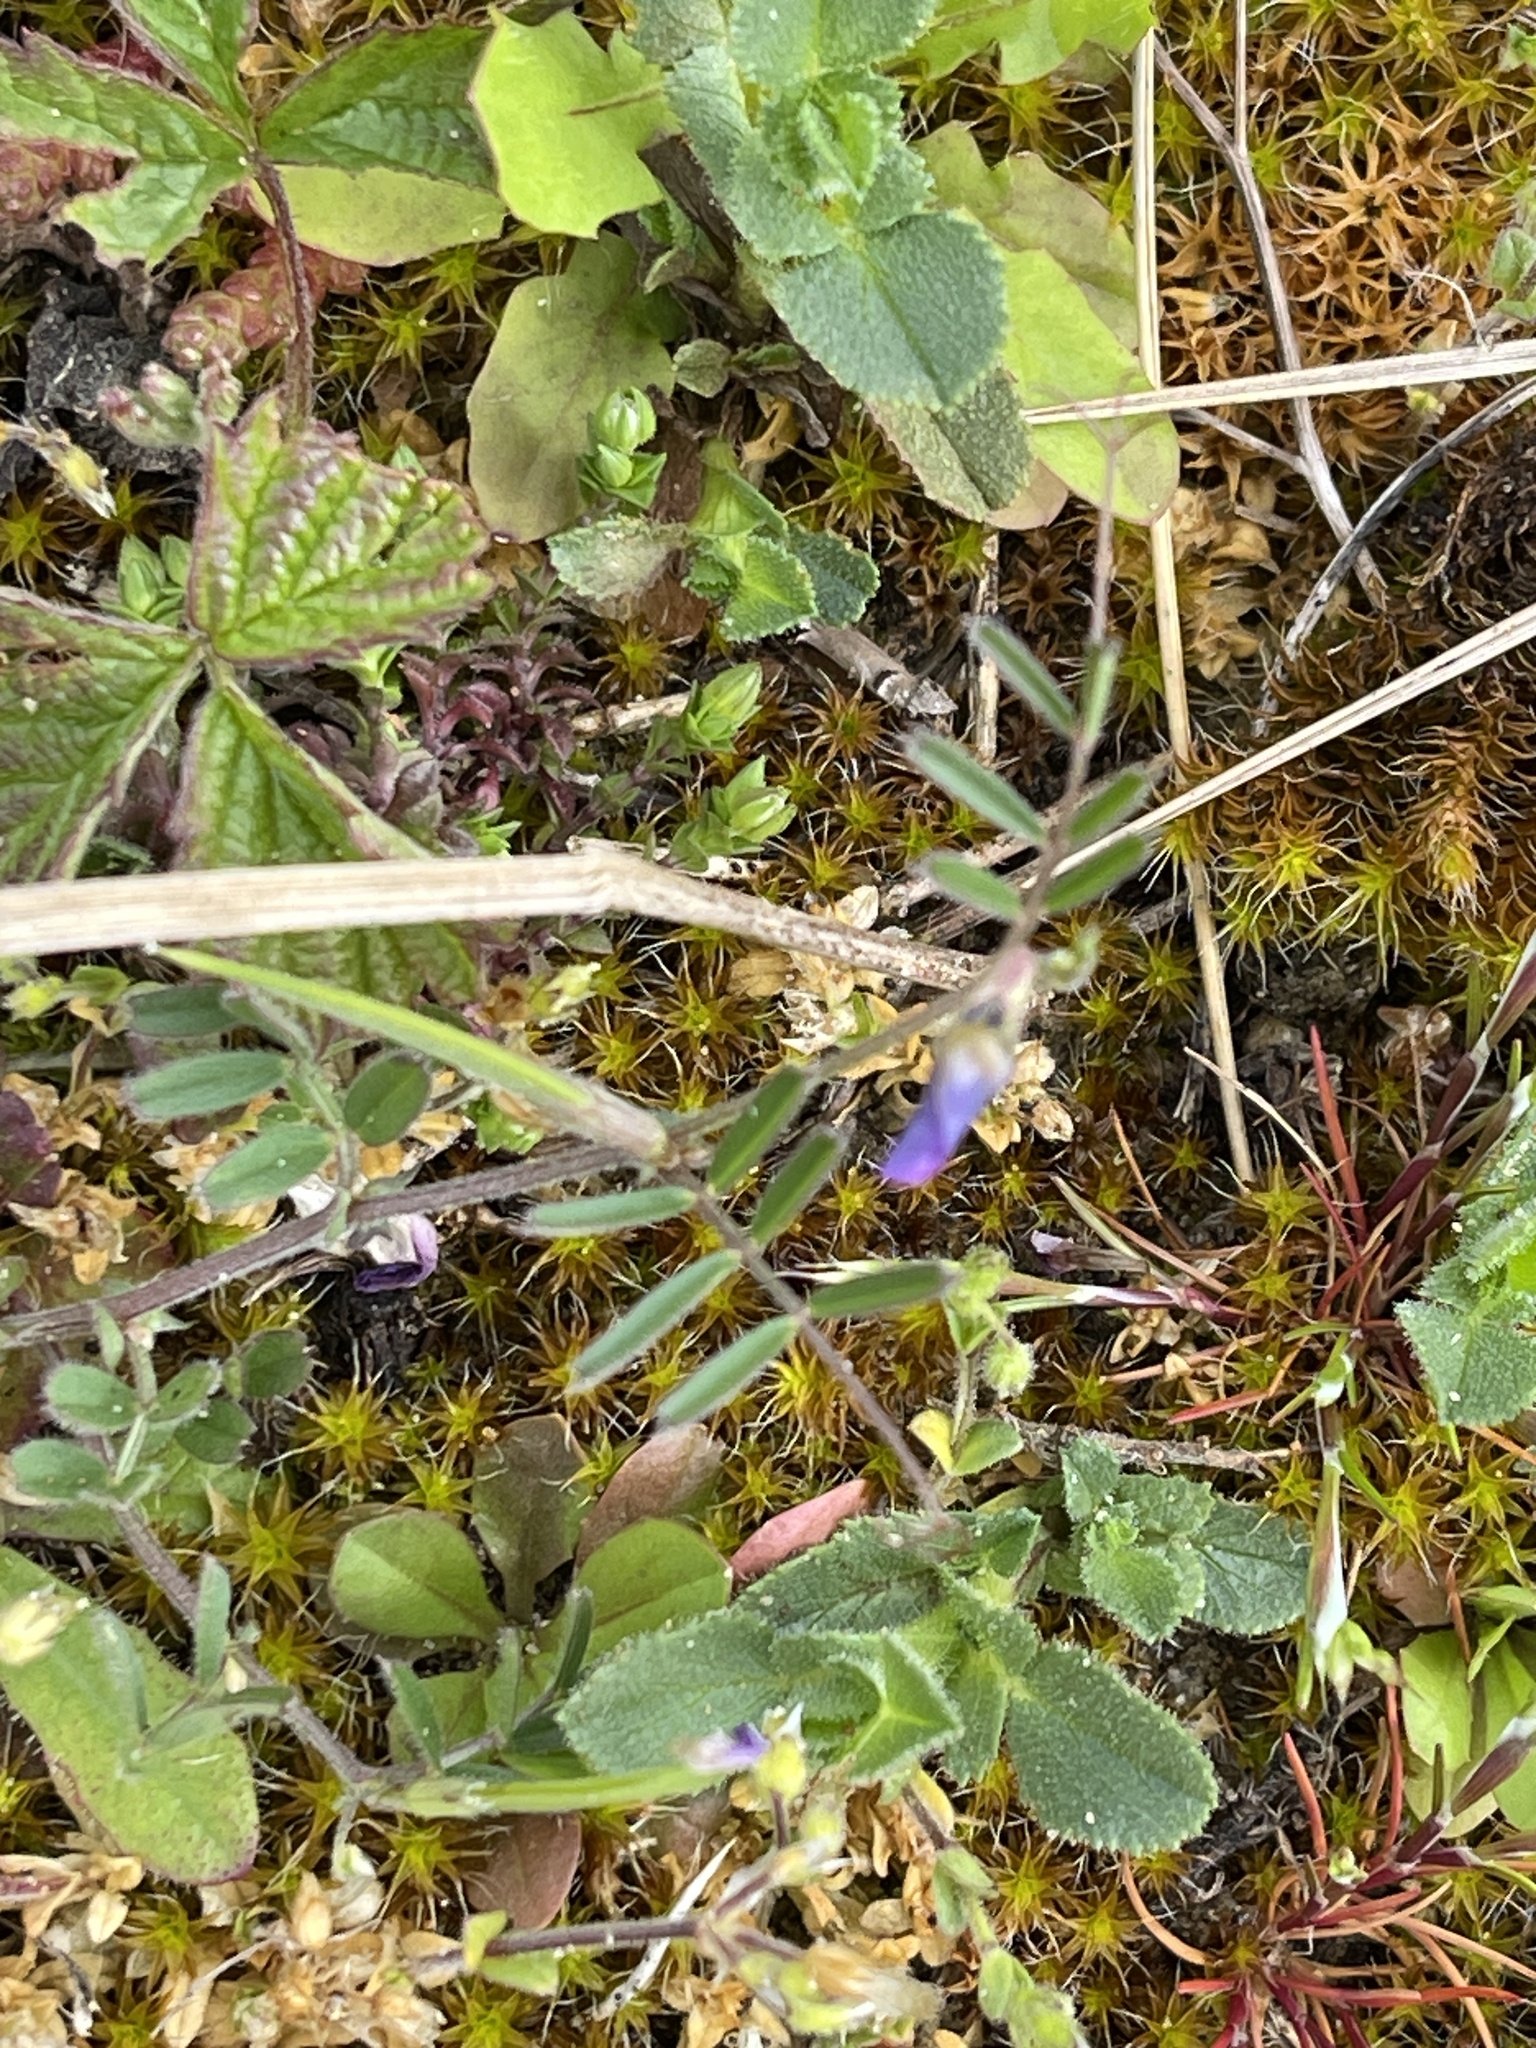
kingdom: Plantae
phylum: Tracheophyta
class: Magnoliopsida
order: Fabales
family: Fabaceae
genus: Vicia
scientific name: Vicia lathyroides
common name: Spring vetch
